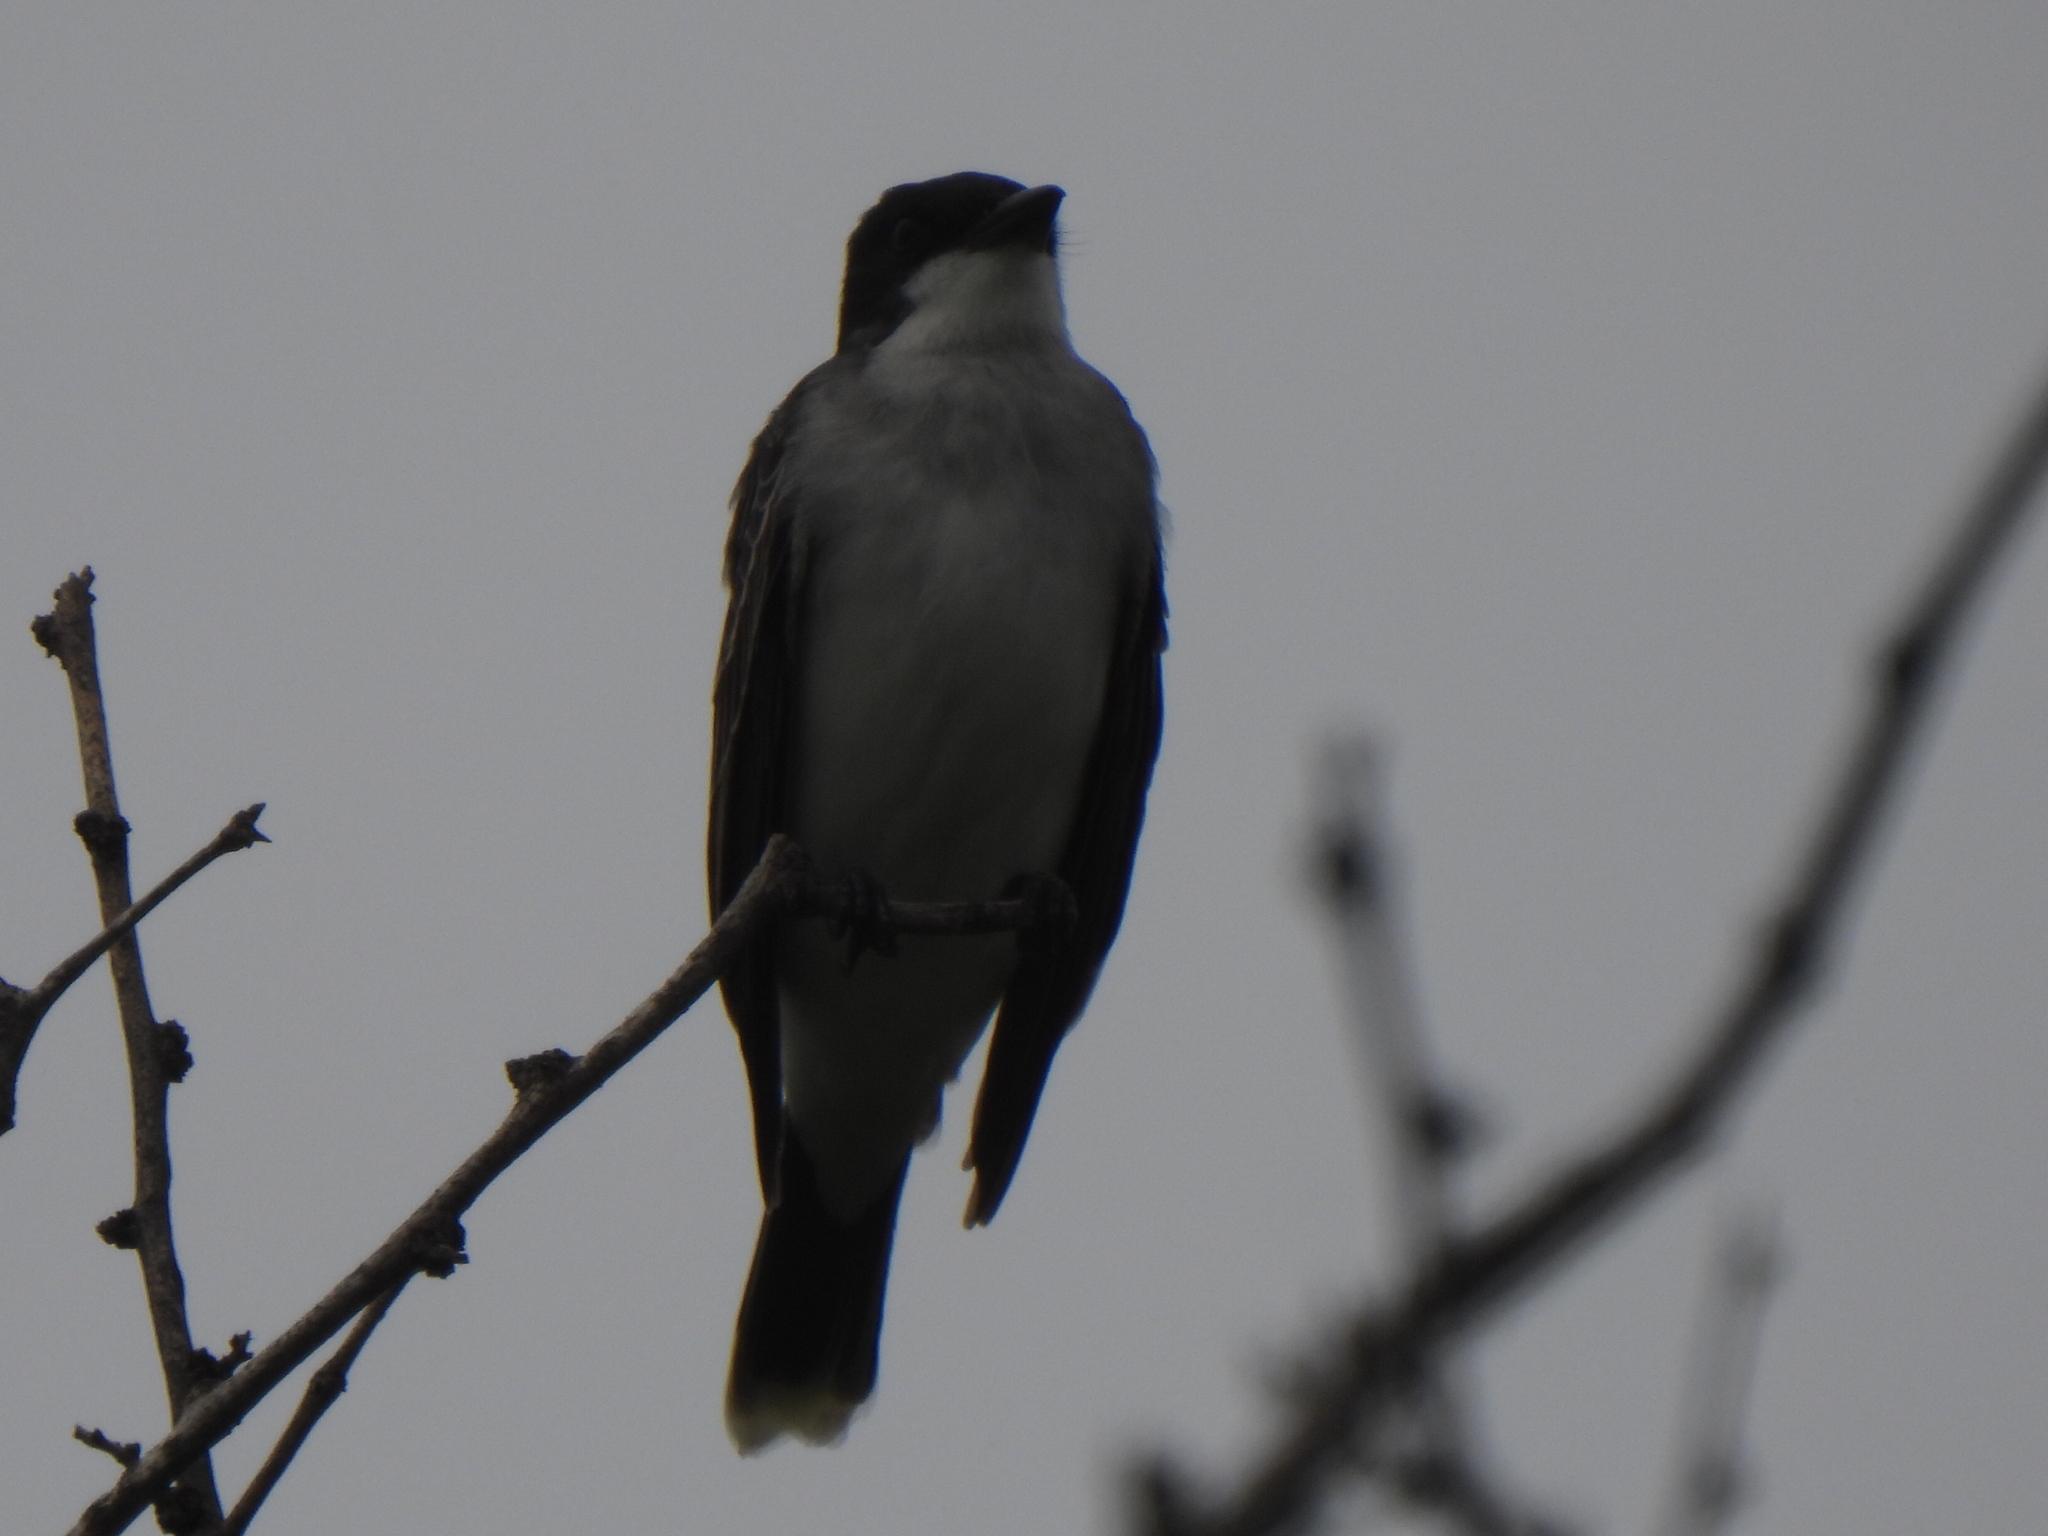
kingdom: Animalia
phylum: Chordata
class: Aves
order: Passeriformes
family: Tyrannidae
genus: Tyrannus
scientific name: Tyrannus tyrannus
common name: Eastern kingbird
